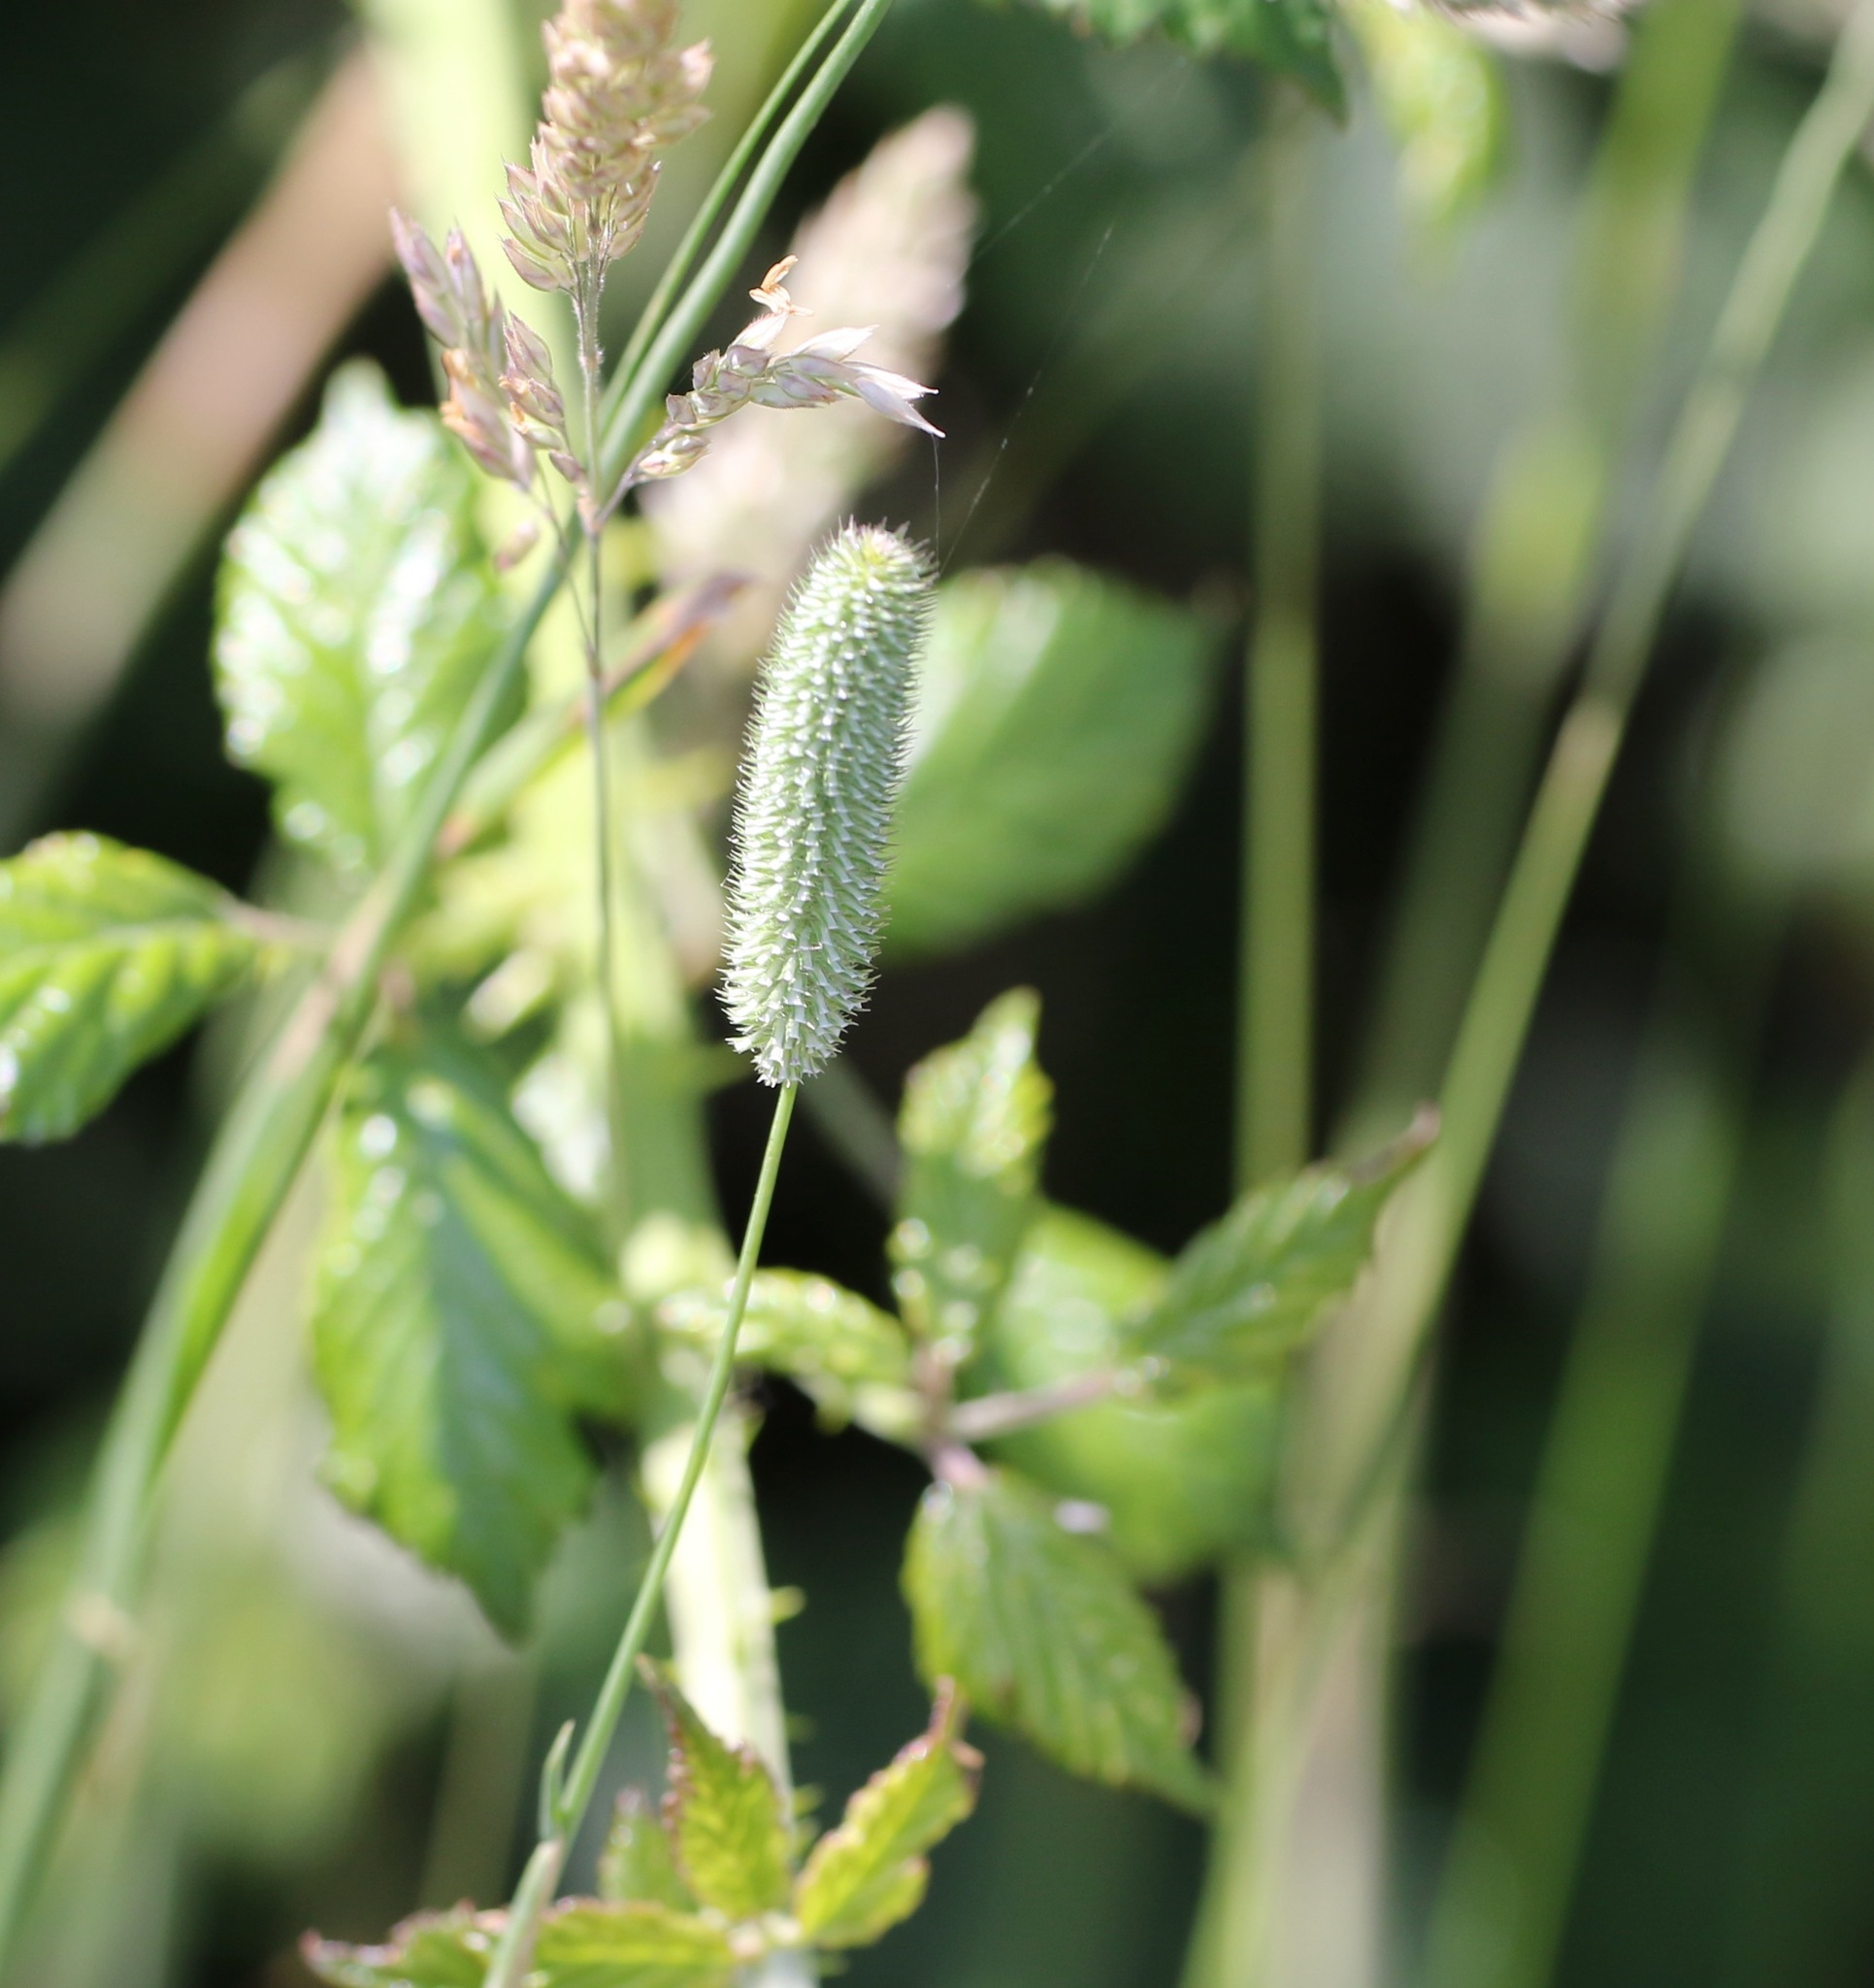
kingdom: Plantae
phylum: Tracheophyta
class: Liliopsida
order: Poales
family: Poaceae
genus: Phleum
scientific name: Phleum bertolonii
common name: Smaller cat's-tail
